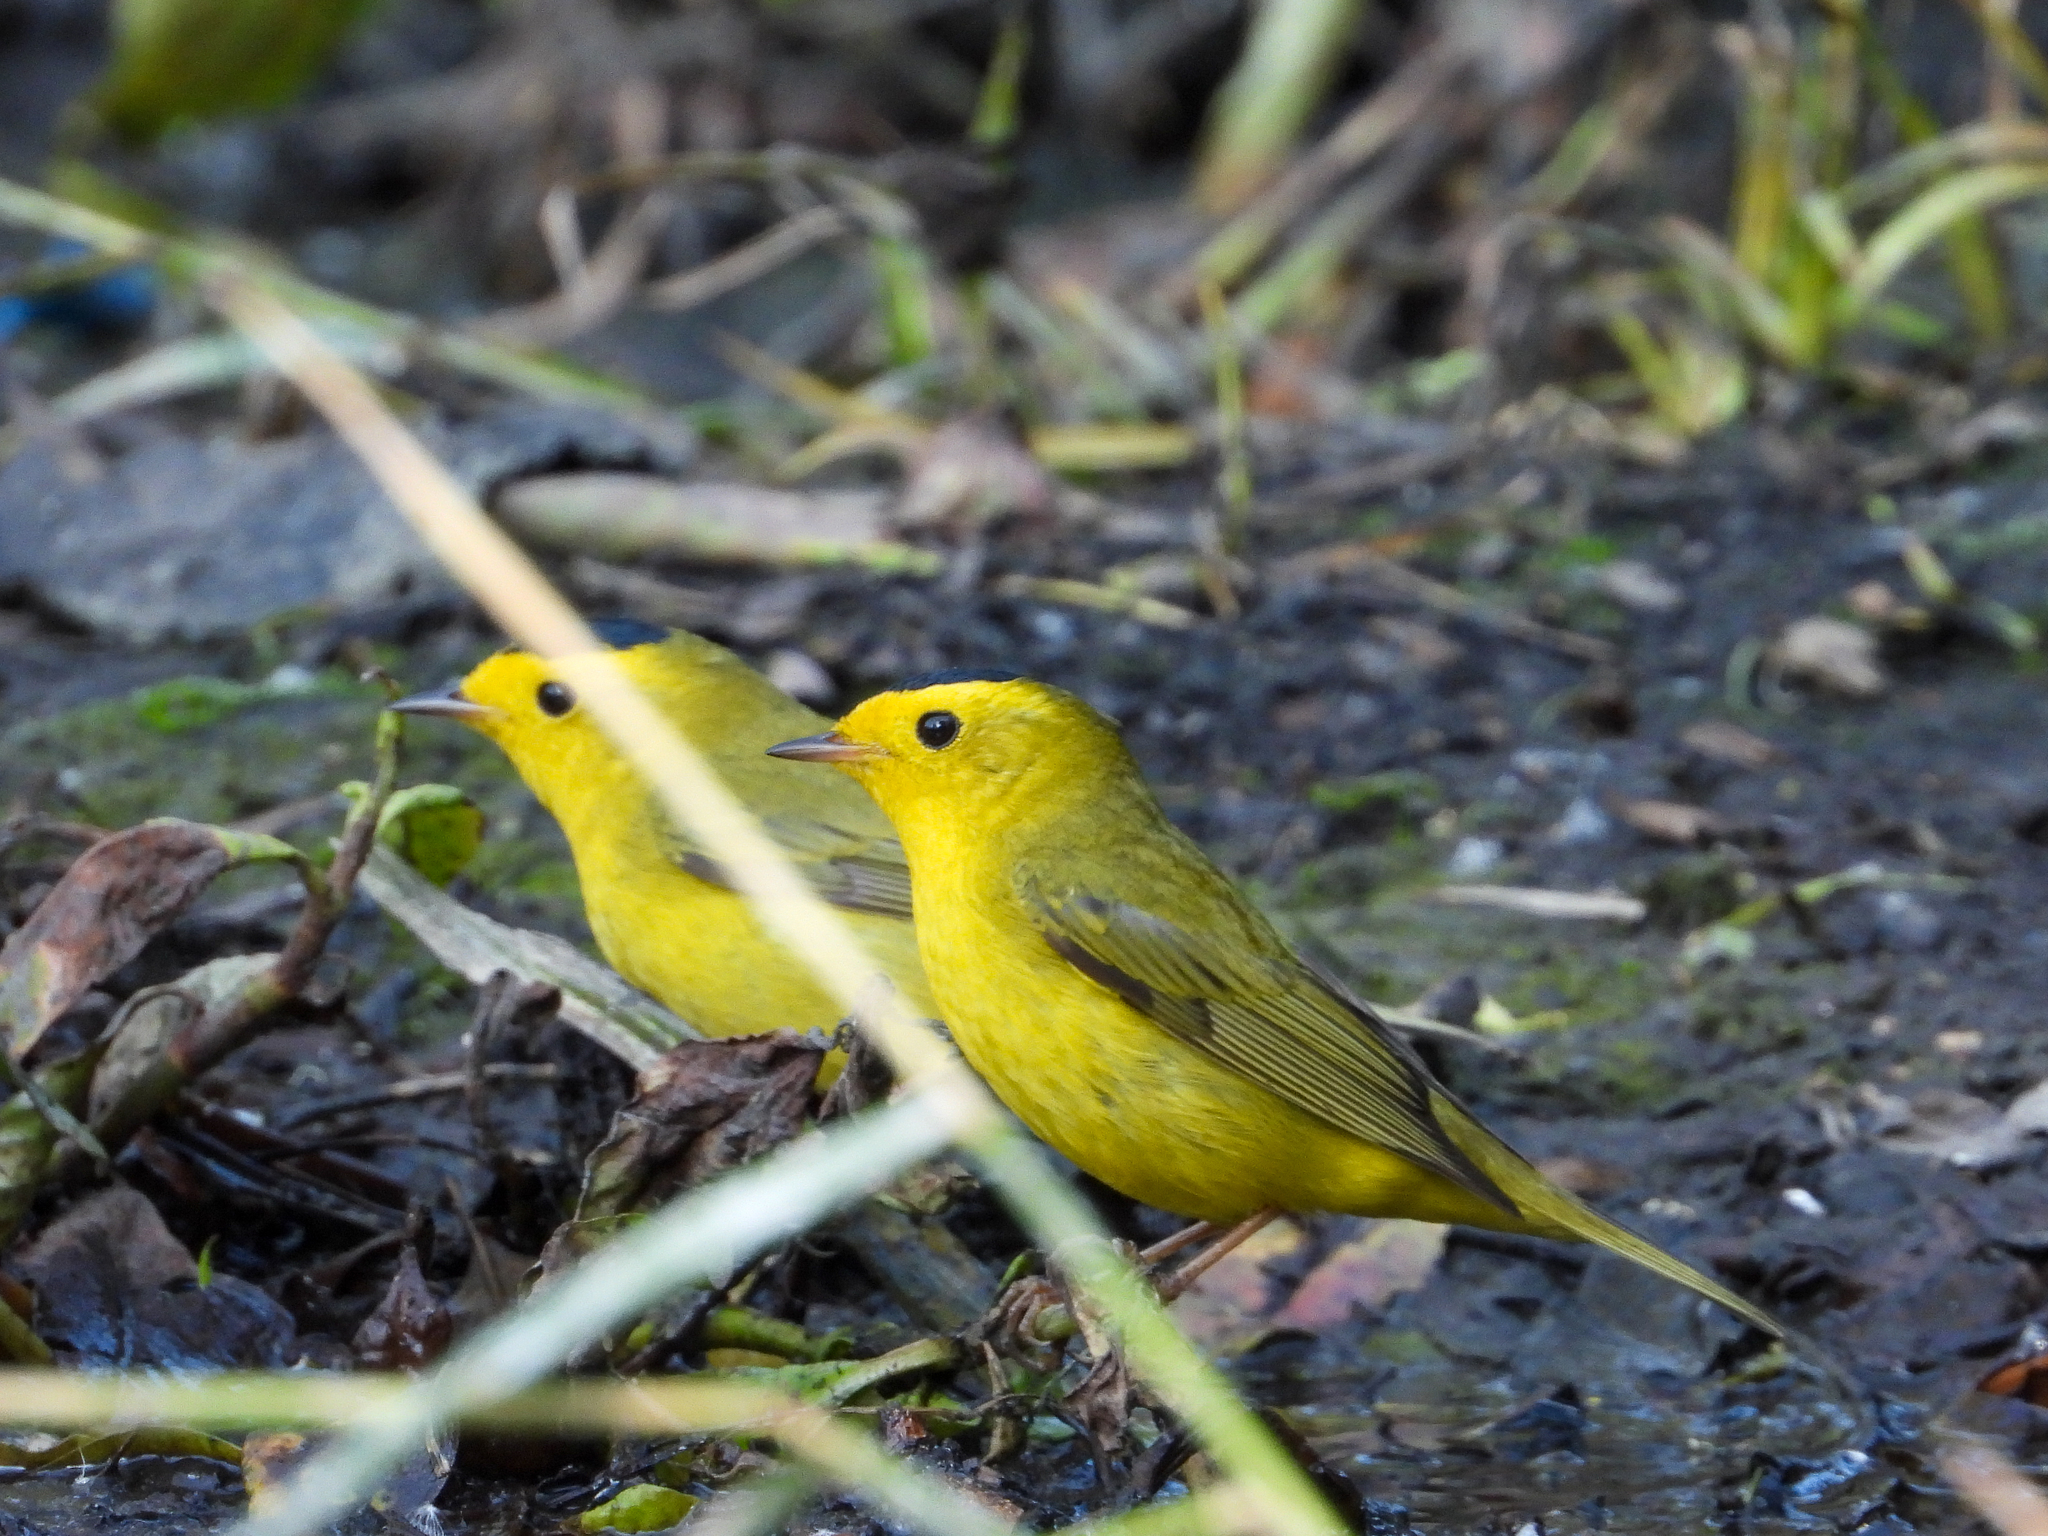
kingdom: Animalia
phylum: Chordata
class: Aves
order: Passeriformes
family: Parulidae
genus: Cardellina
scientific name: Cardellina pusilla
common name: Wilson's warbler
